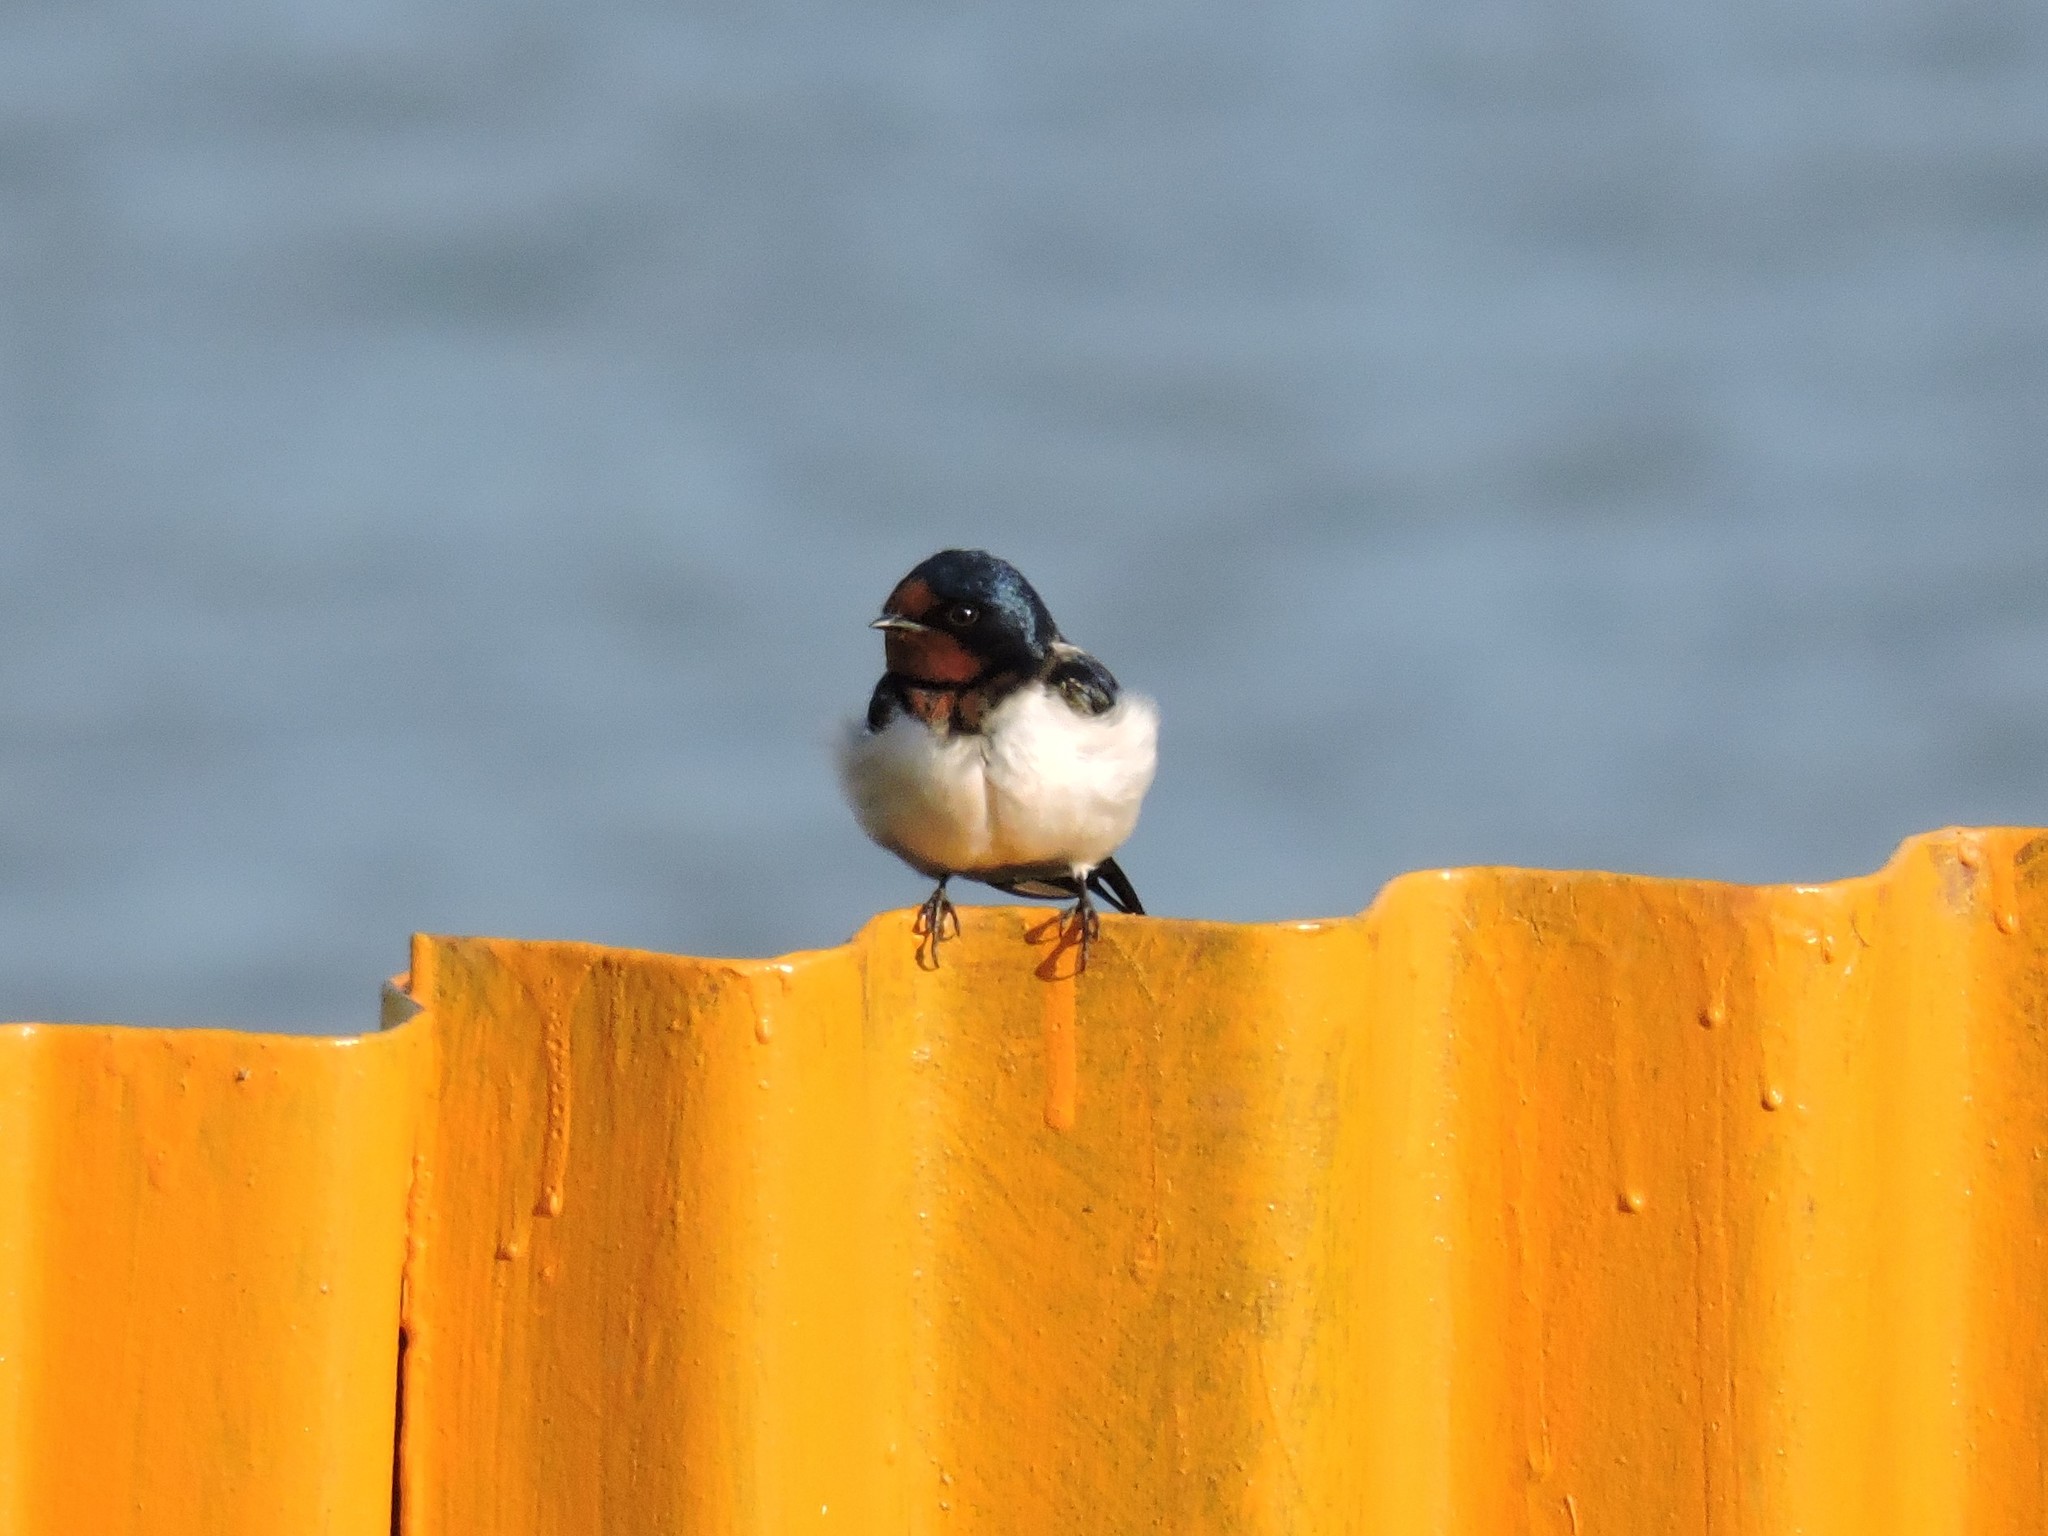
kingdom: Animalia
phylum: Chordata
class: Aves
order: Passeriformes
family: Hirundinidae
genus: Hirundo
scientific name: Hirundo rustica
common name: Barn swallow
